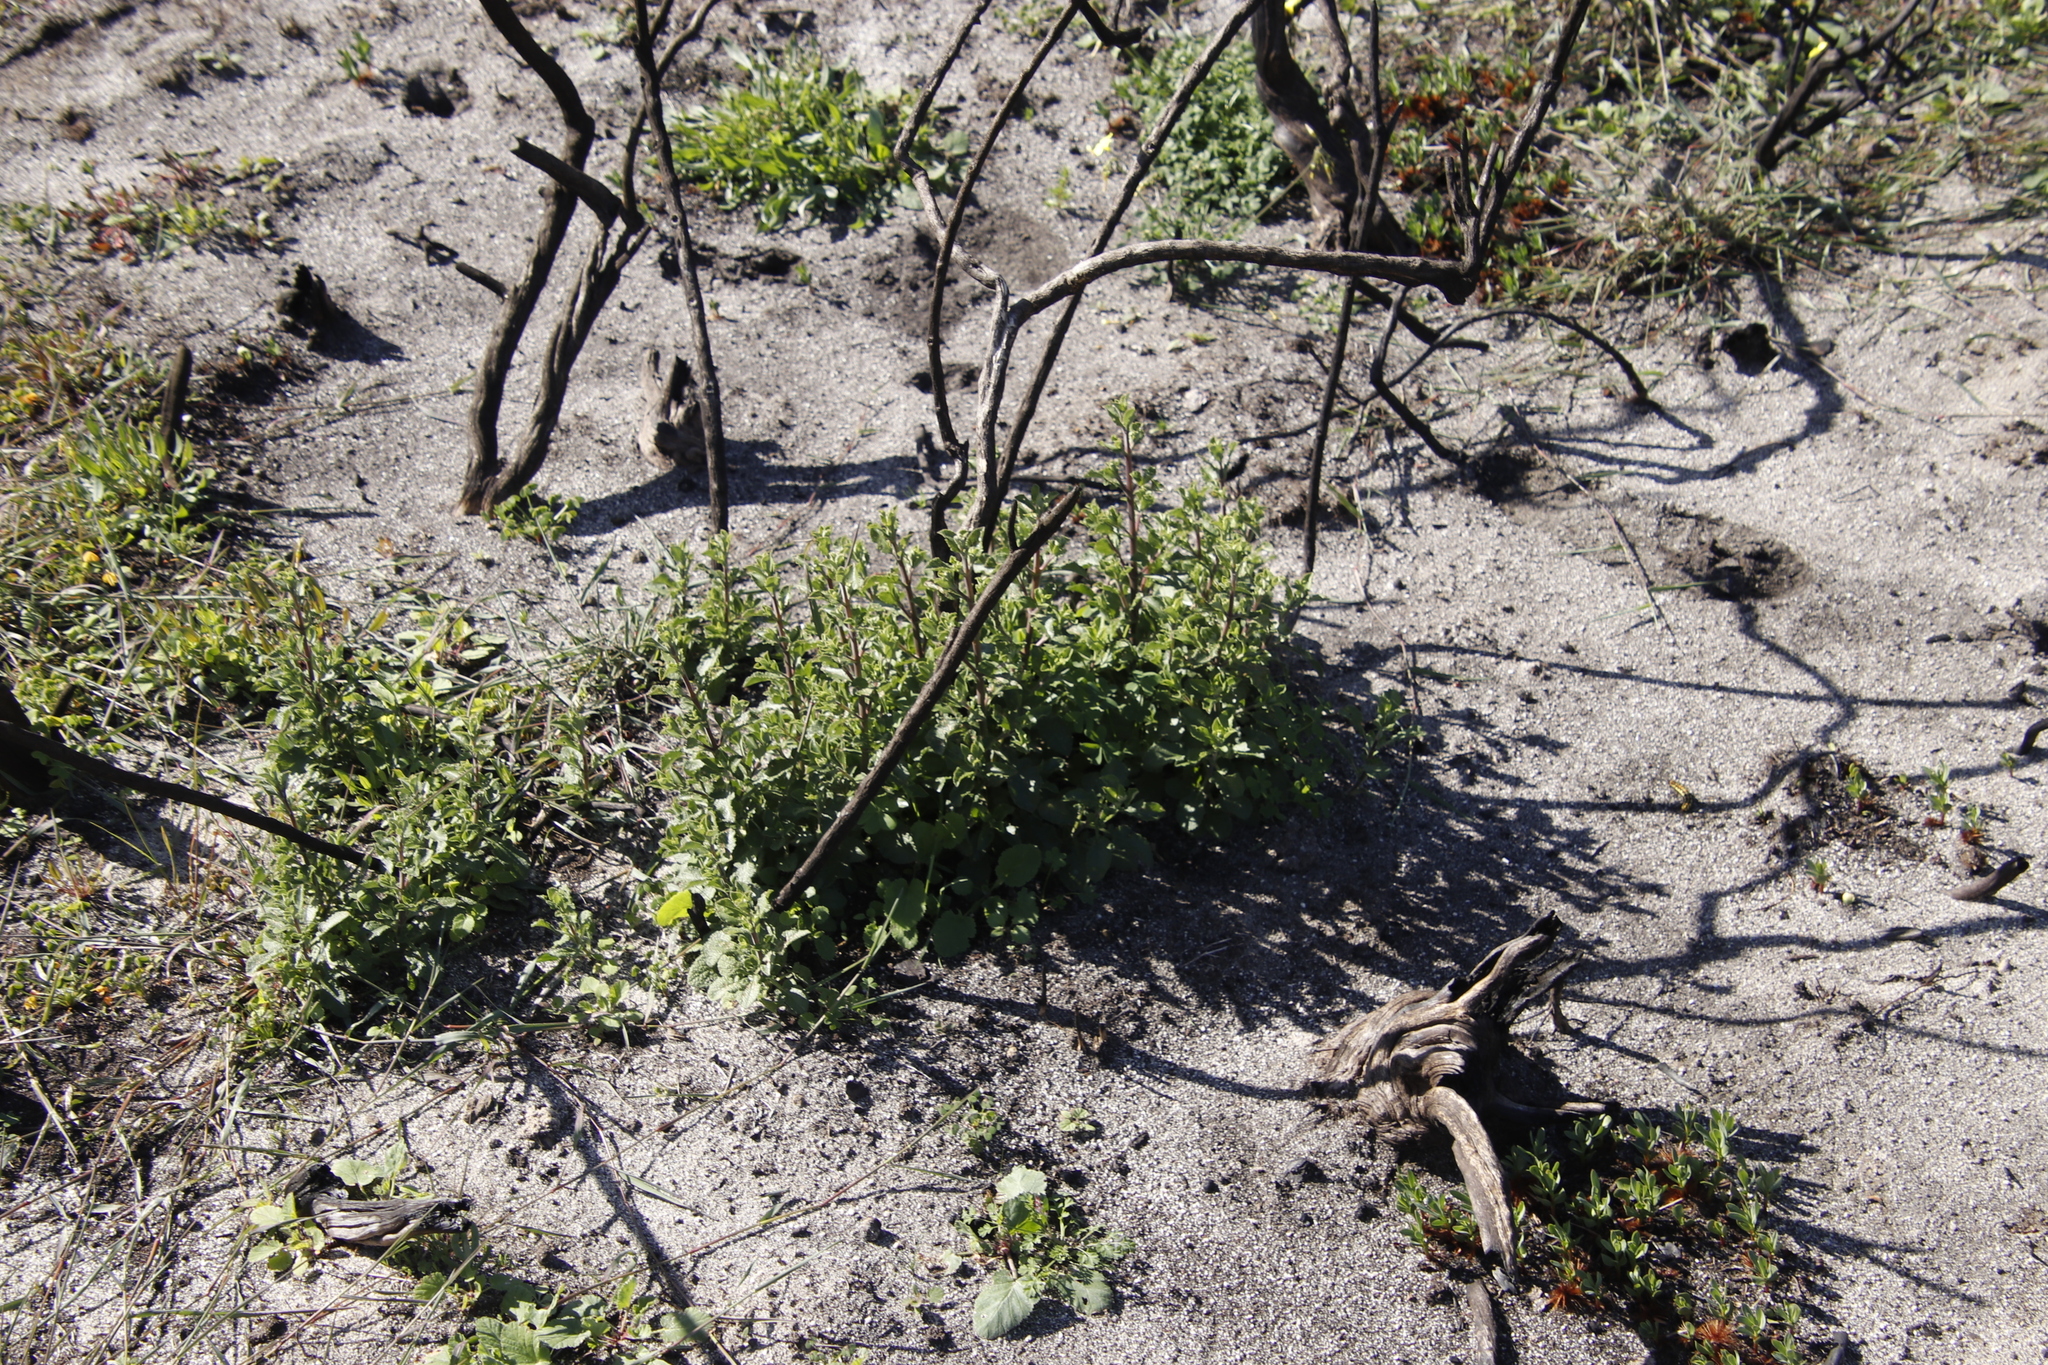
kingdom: Plantae
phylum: Tracheophyta
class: Magnoliopsida
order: Lamiales
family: Lamiaceae
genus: Salvia
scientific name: Salvia africana
